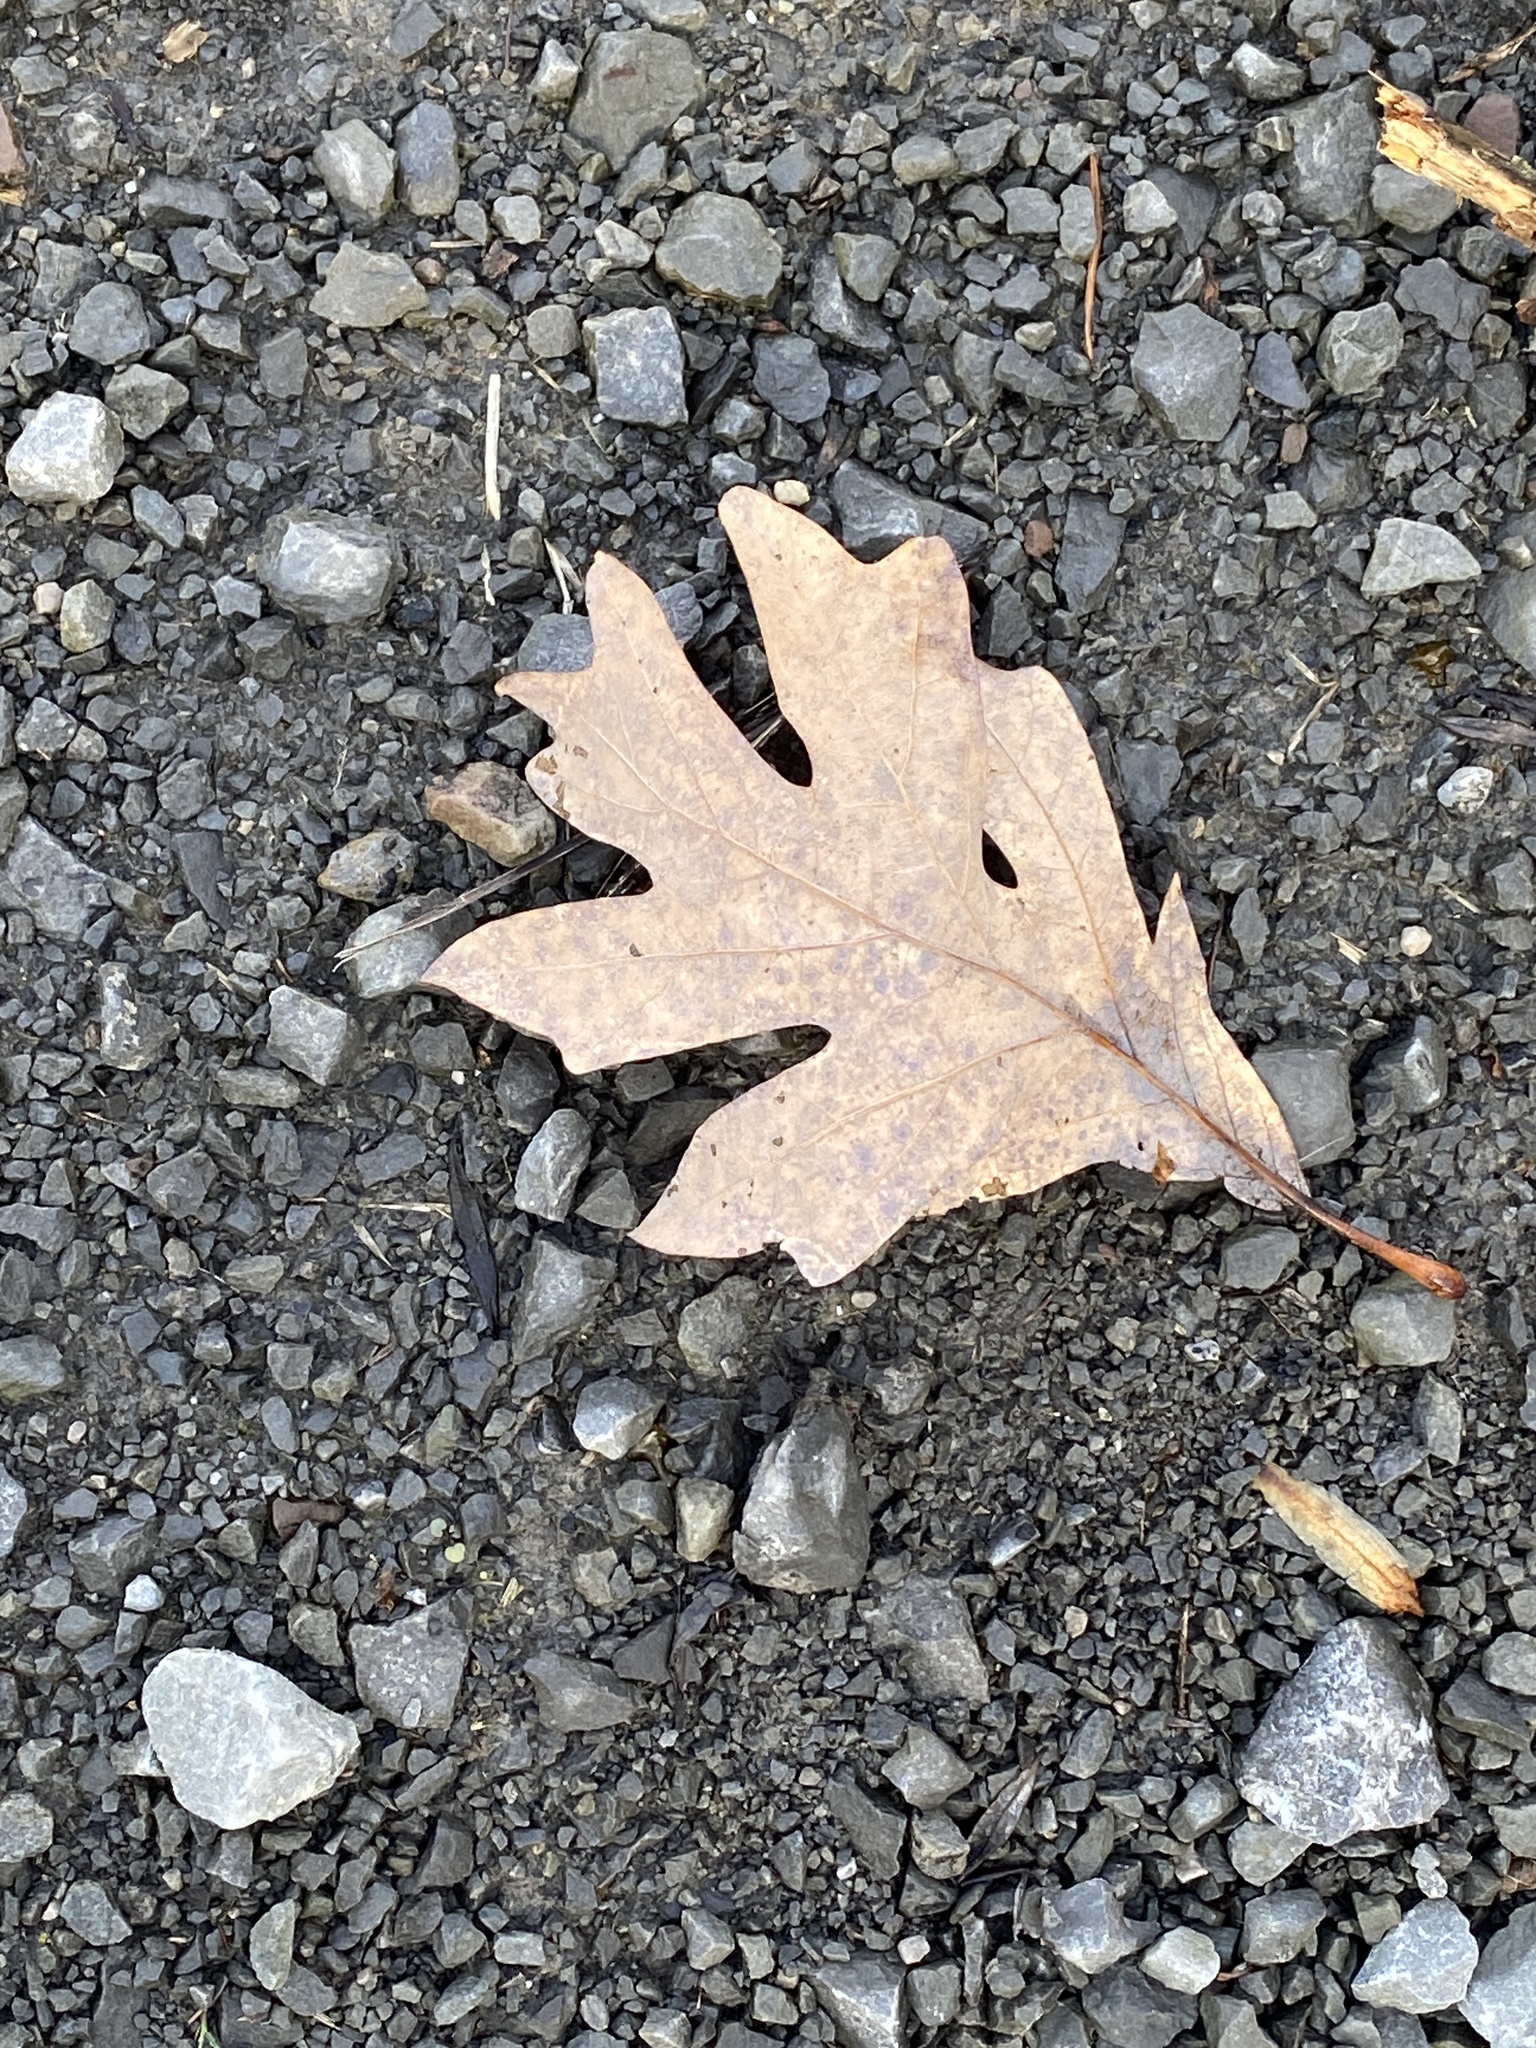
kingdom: Plantae
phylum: Tracheophyta
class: Magnoliopsida
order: Fagales
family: Fagaceae
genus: Quercus
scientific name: Quercus alba
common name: White oak
